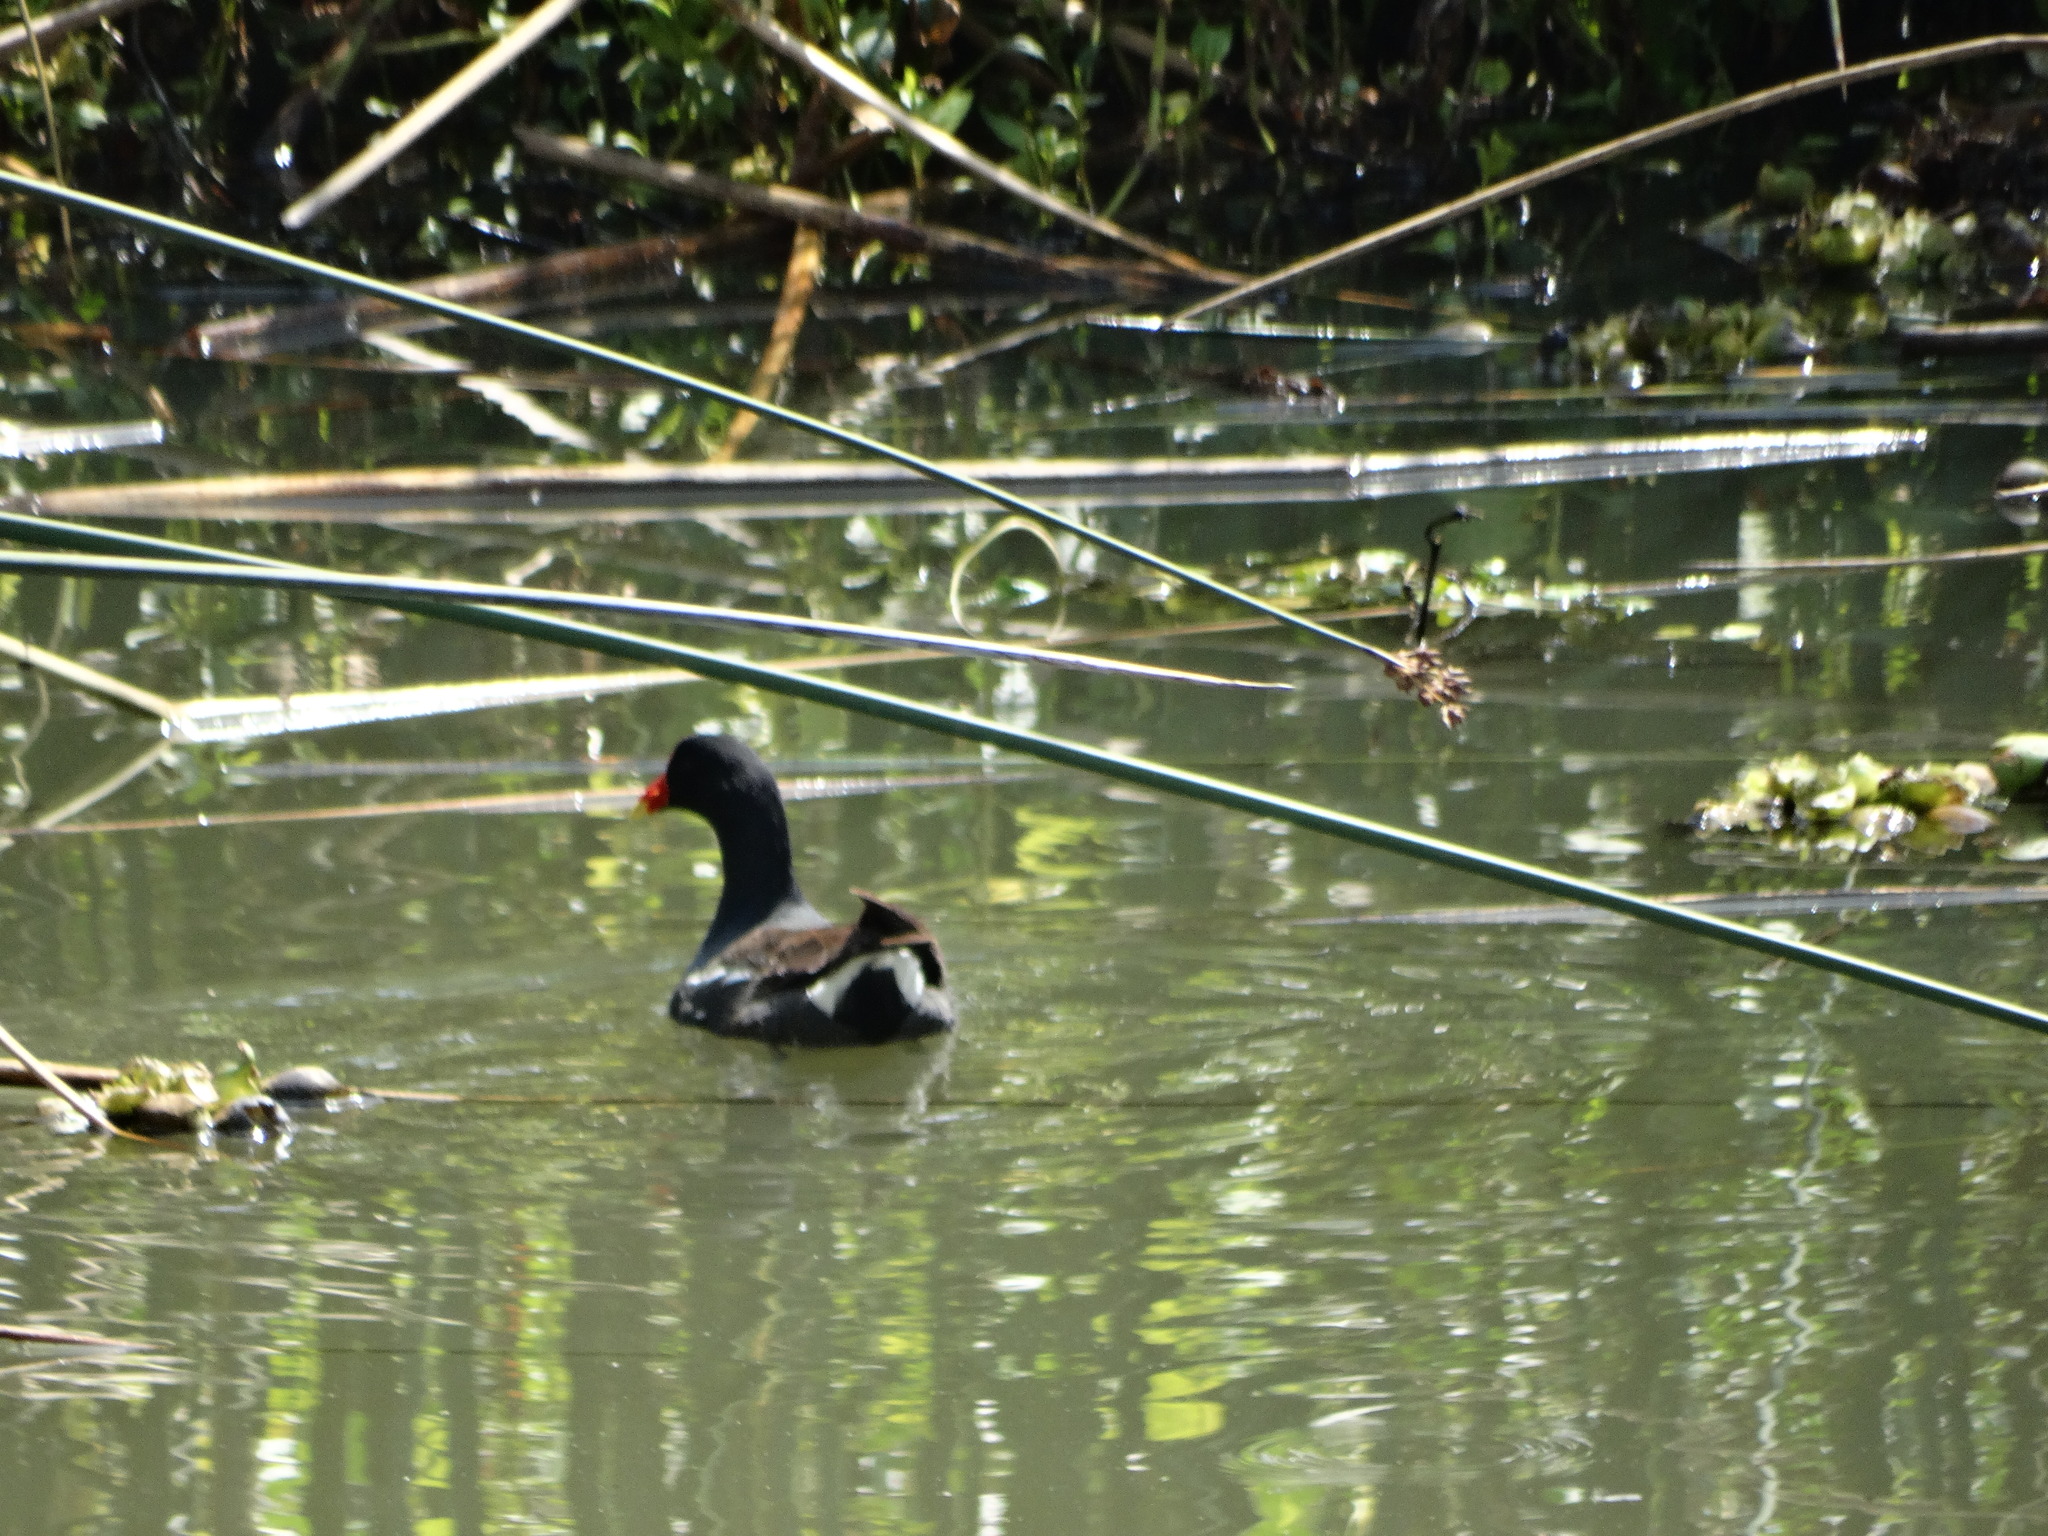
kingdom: Animalia
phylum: Chordata
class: Aves
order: Gruiformes
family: Rallidae
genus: Gallinula
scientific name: Gallinula chloropus
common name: Common moorhen
